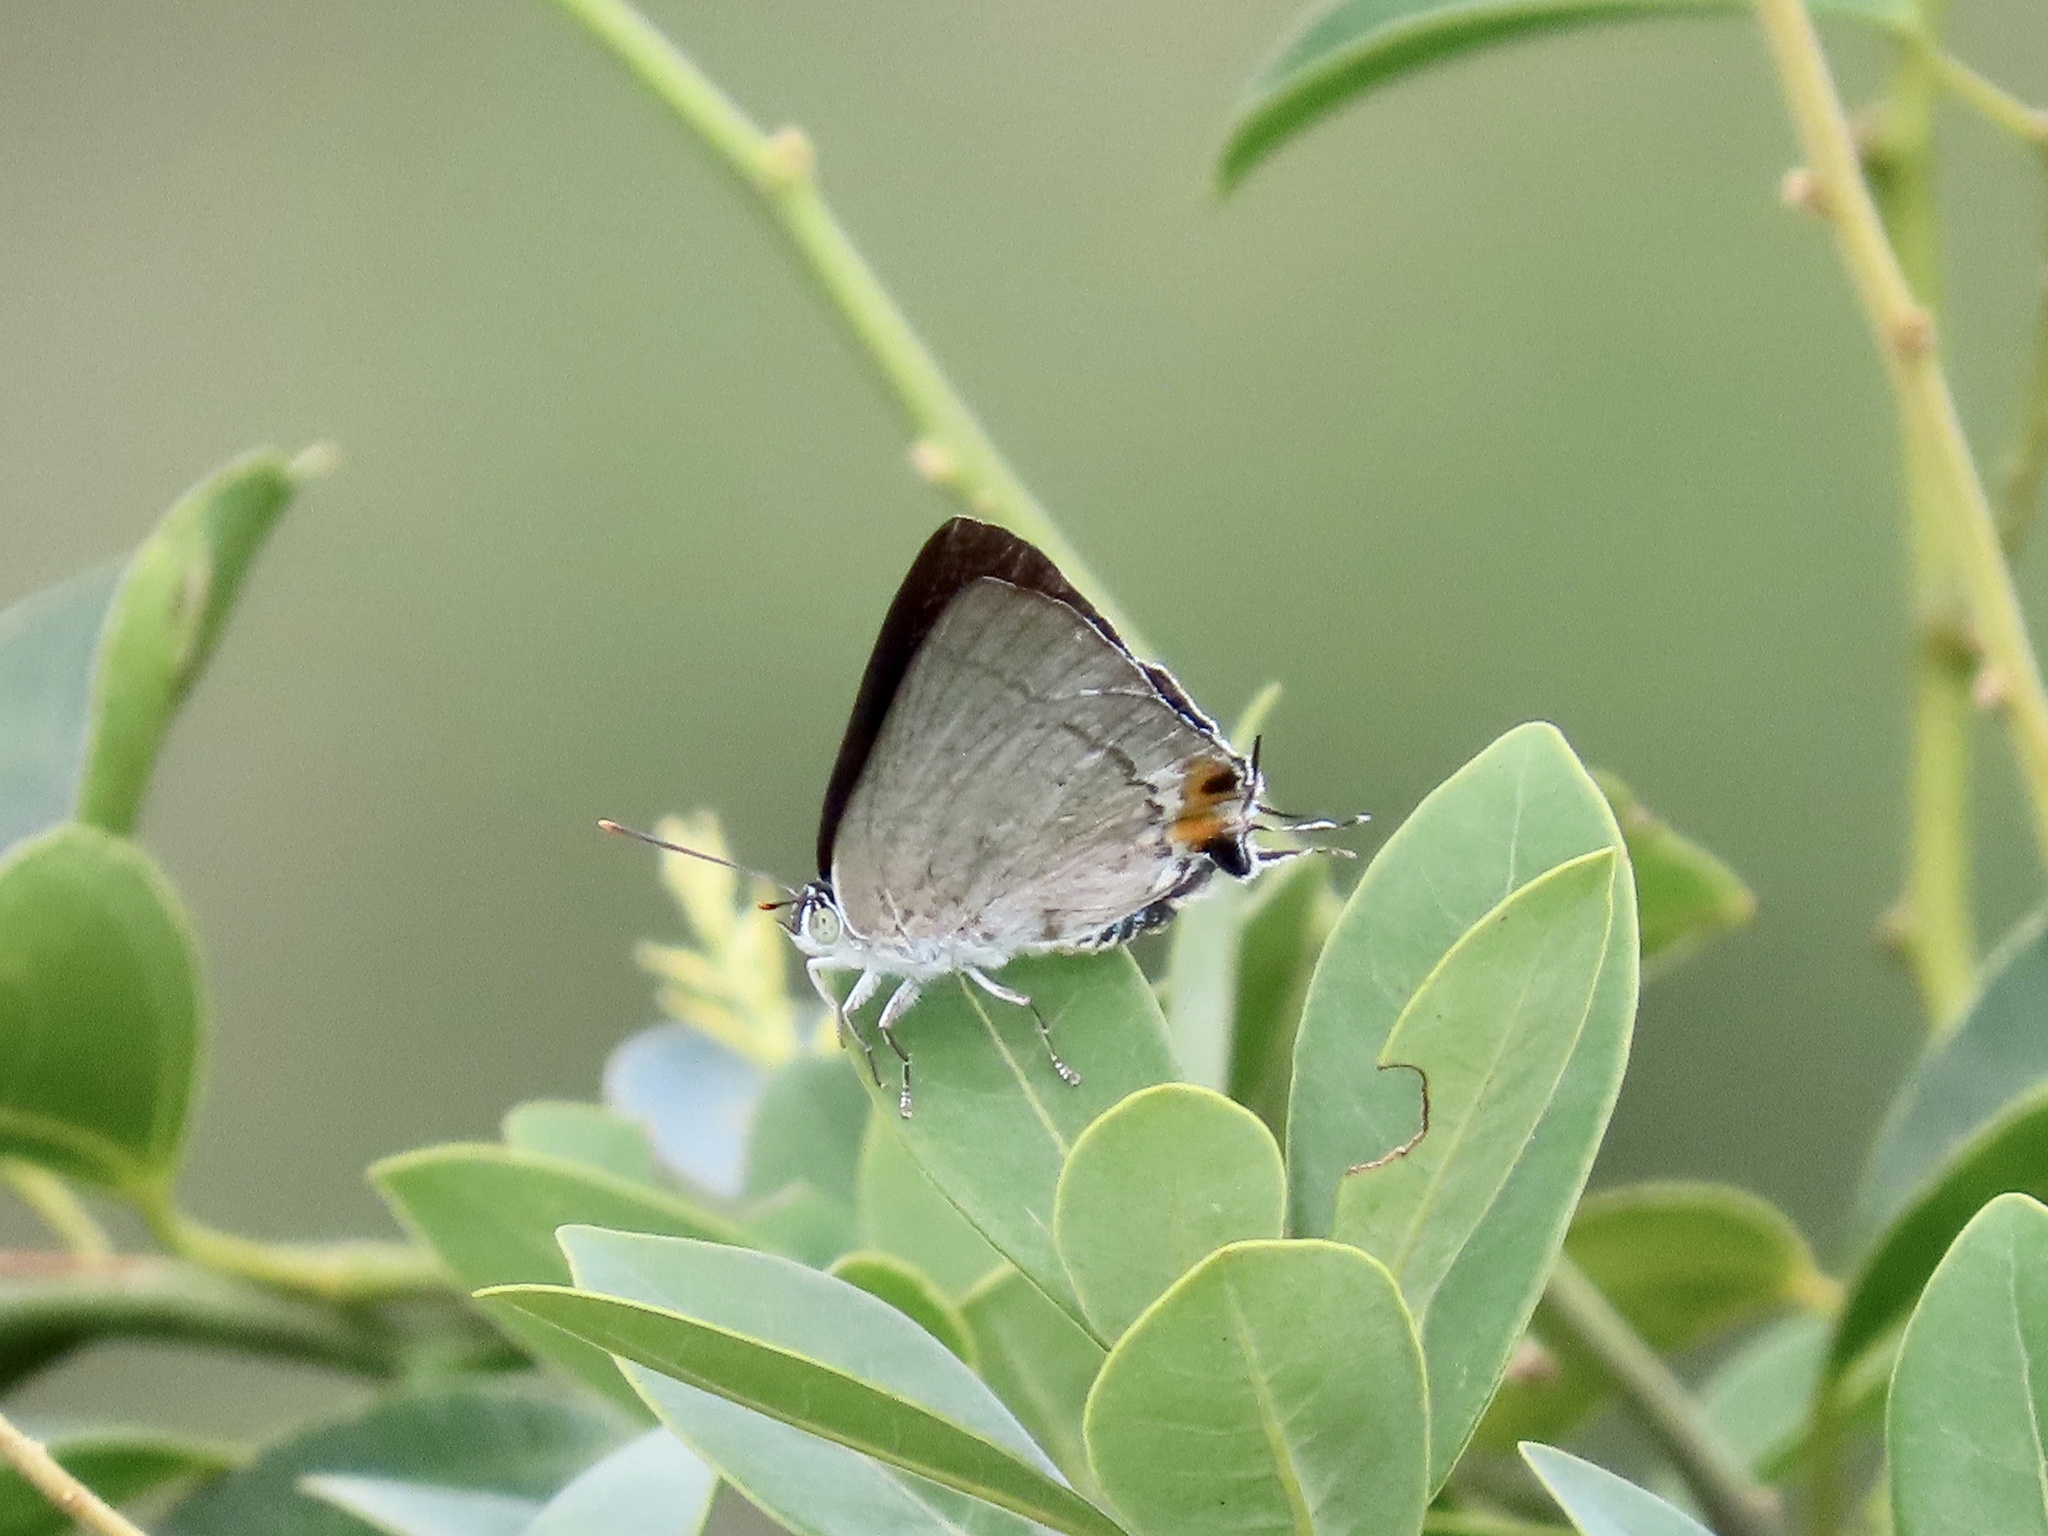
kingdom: Animalia
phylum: Arthropoda
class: Insecta
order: Lepidoptera
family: Lycaenidae
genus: Ancema
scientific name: Ancema blanka
